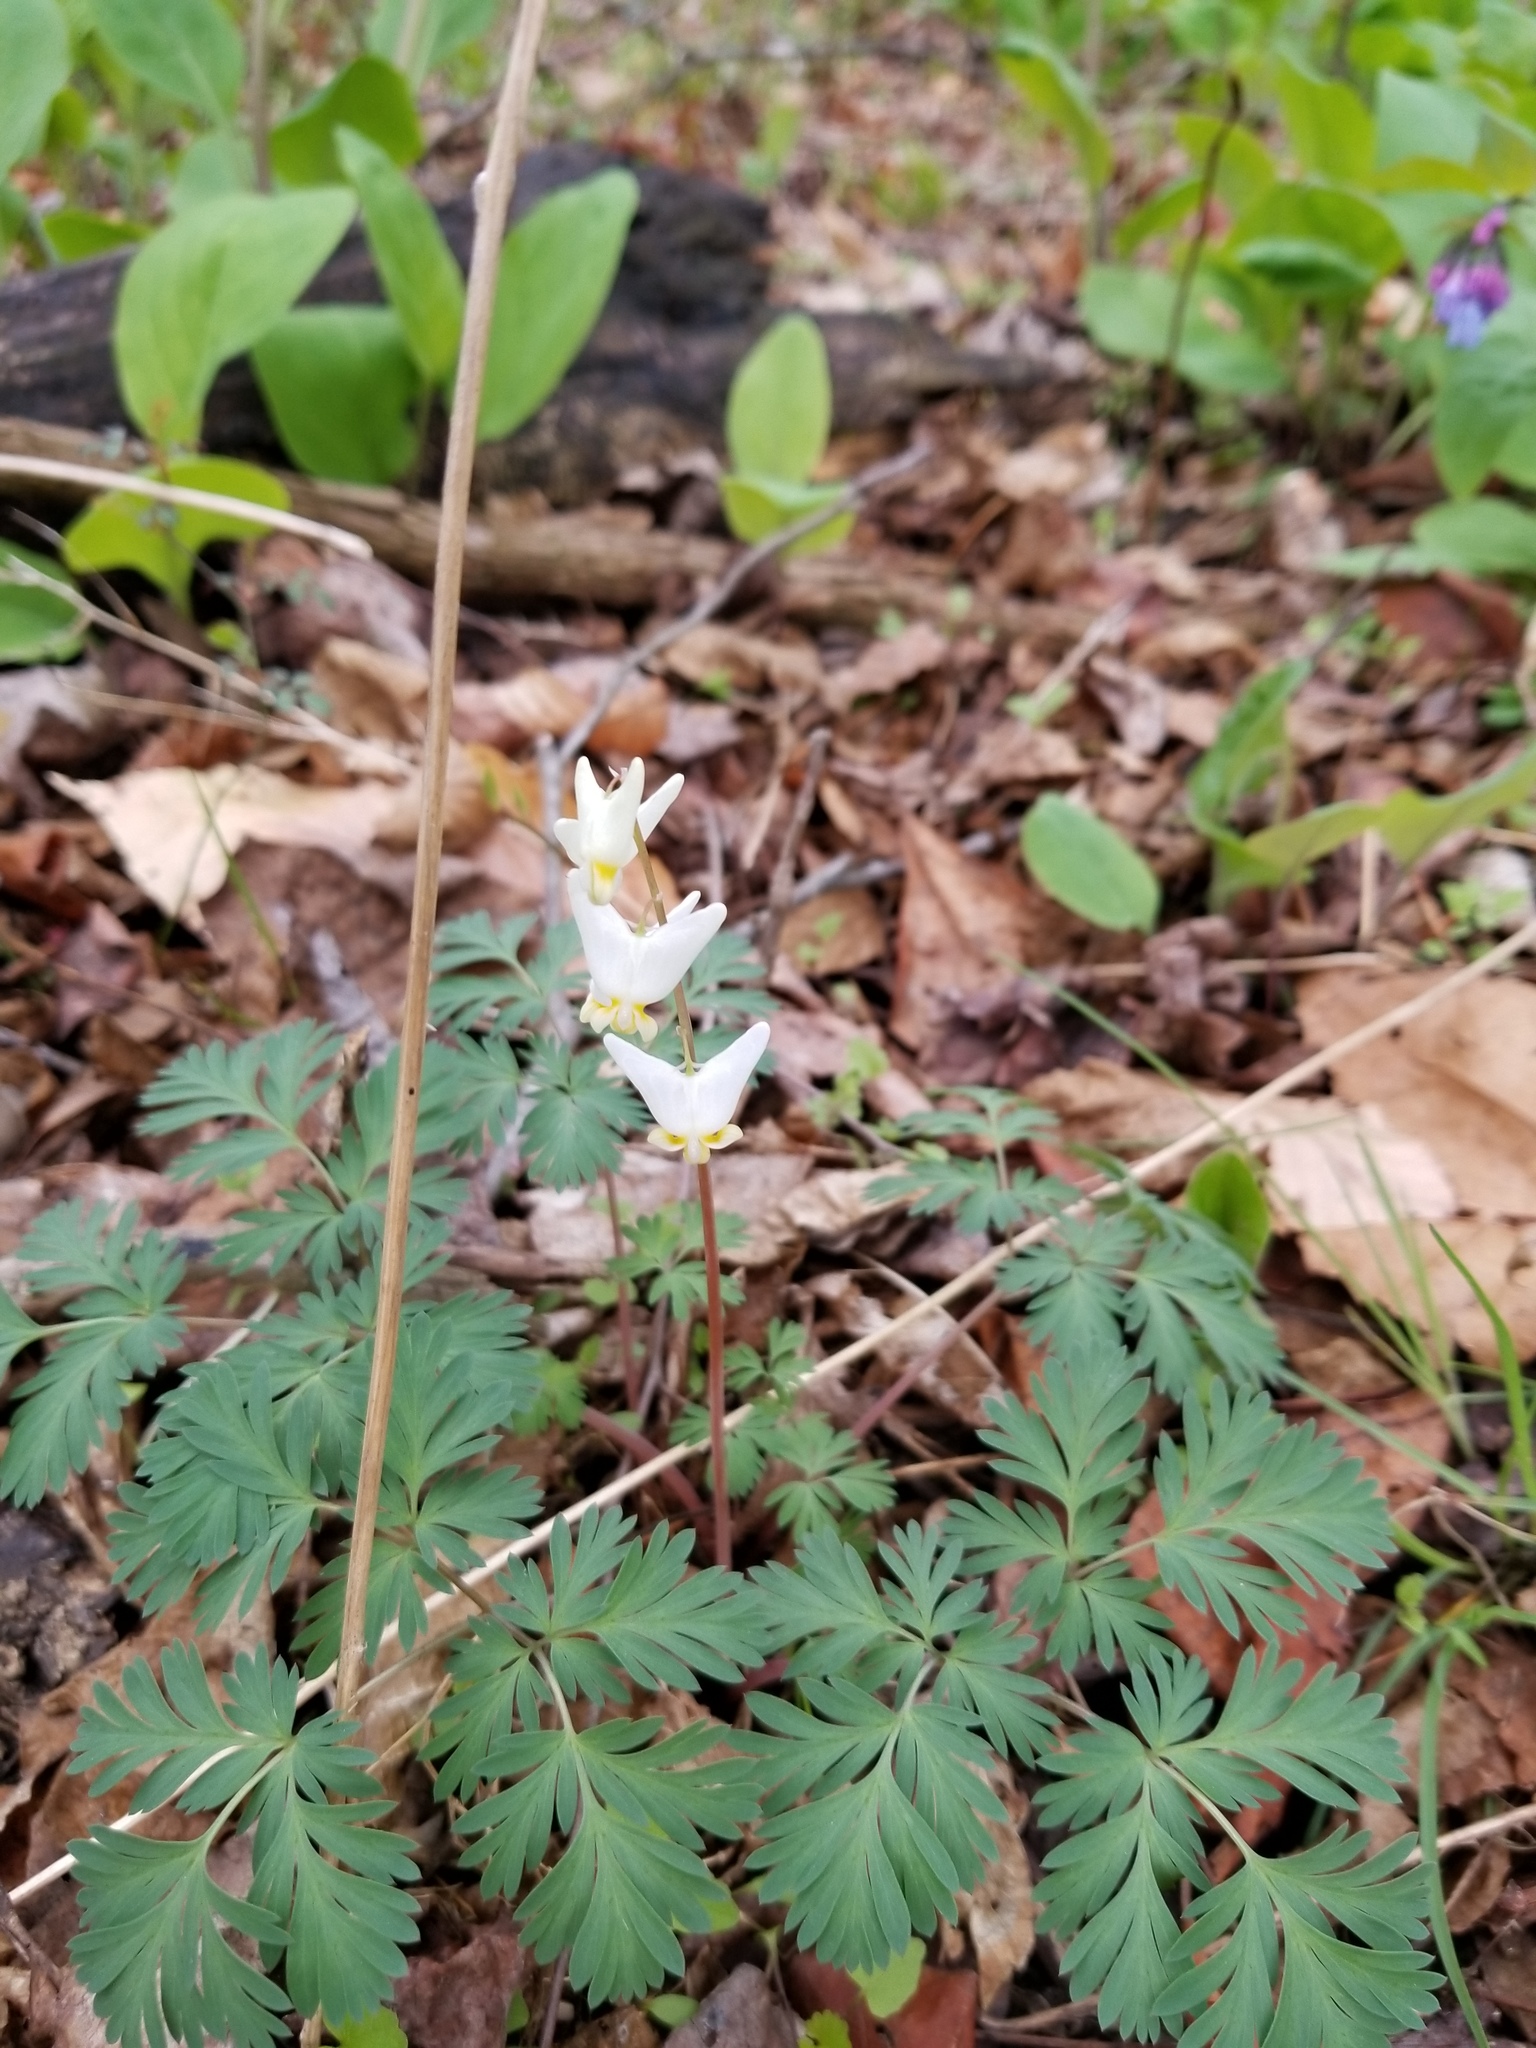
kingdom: Plantae
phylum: Tracheophyta
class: Magnoliopsida
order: Ranunculales
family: Papaveraceae
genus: Dicentra
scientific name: Dicentra cucullaria
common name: Dutchman's breeches
